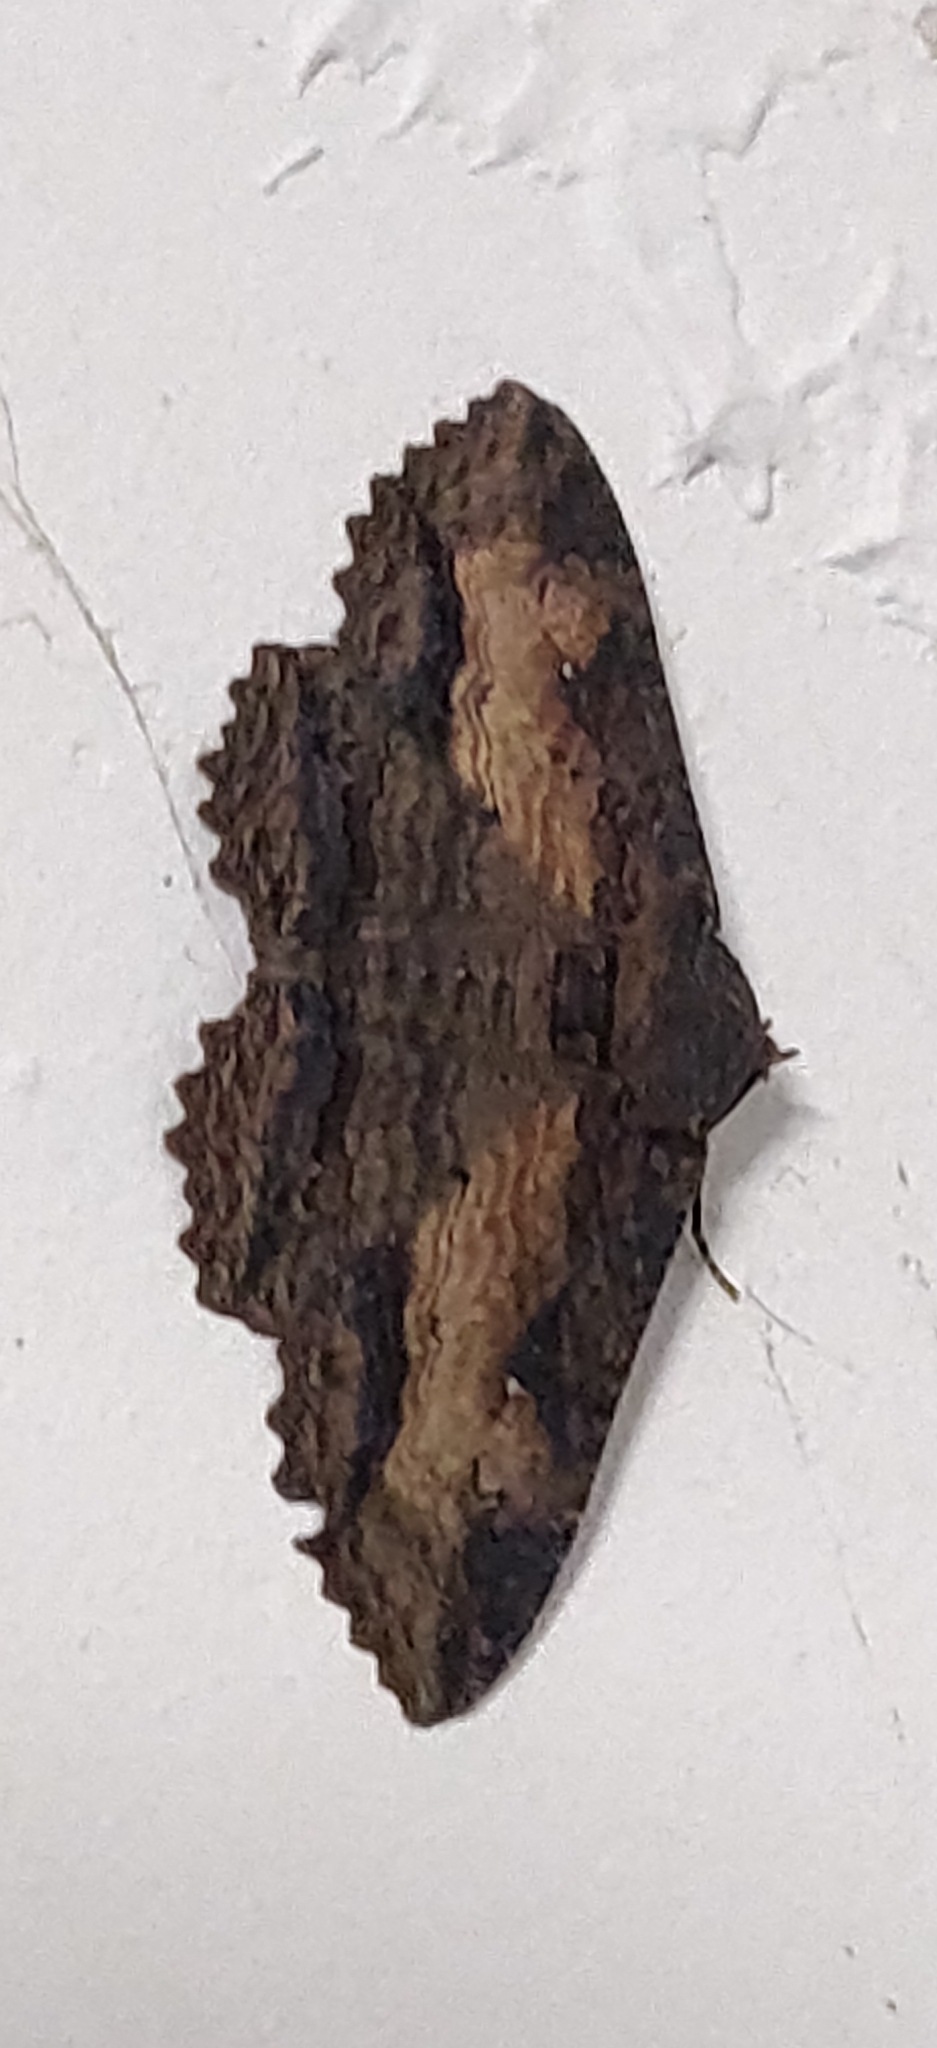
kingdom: Animalia
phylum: Arthropoda
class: Insecta
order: Lepidoptera
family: Erebidae
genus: Zale
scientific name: Zale lunata
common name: Lunate zale moth
